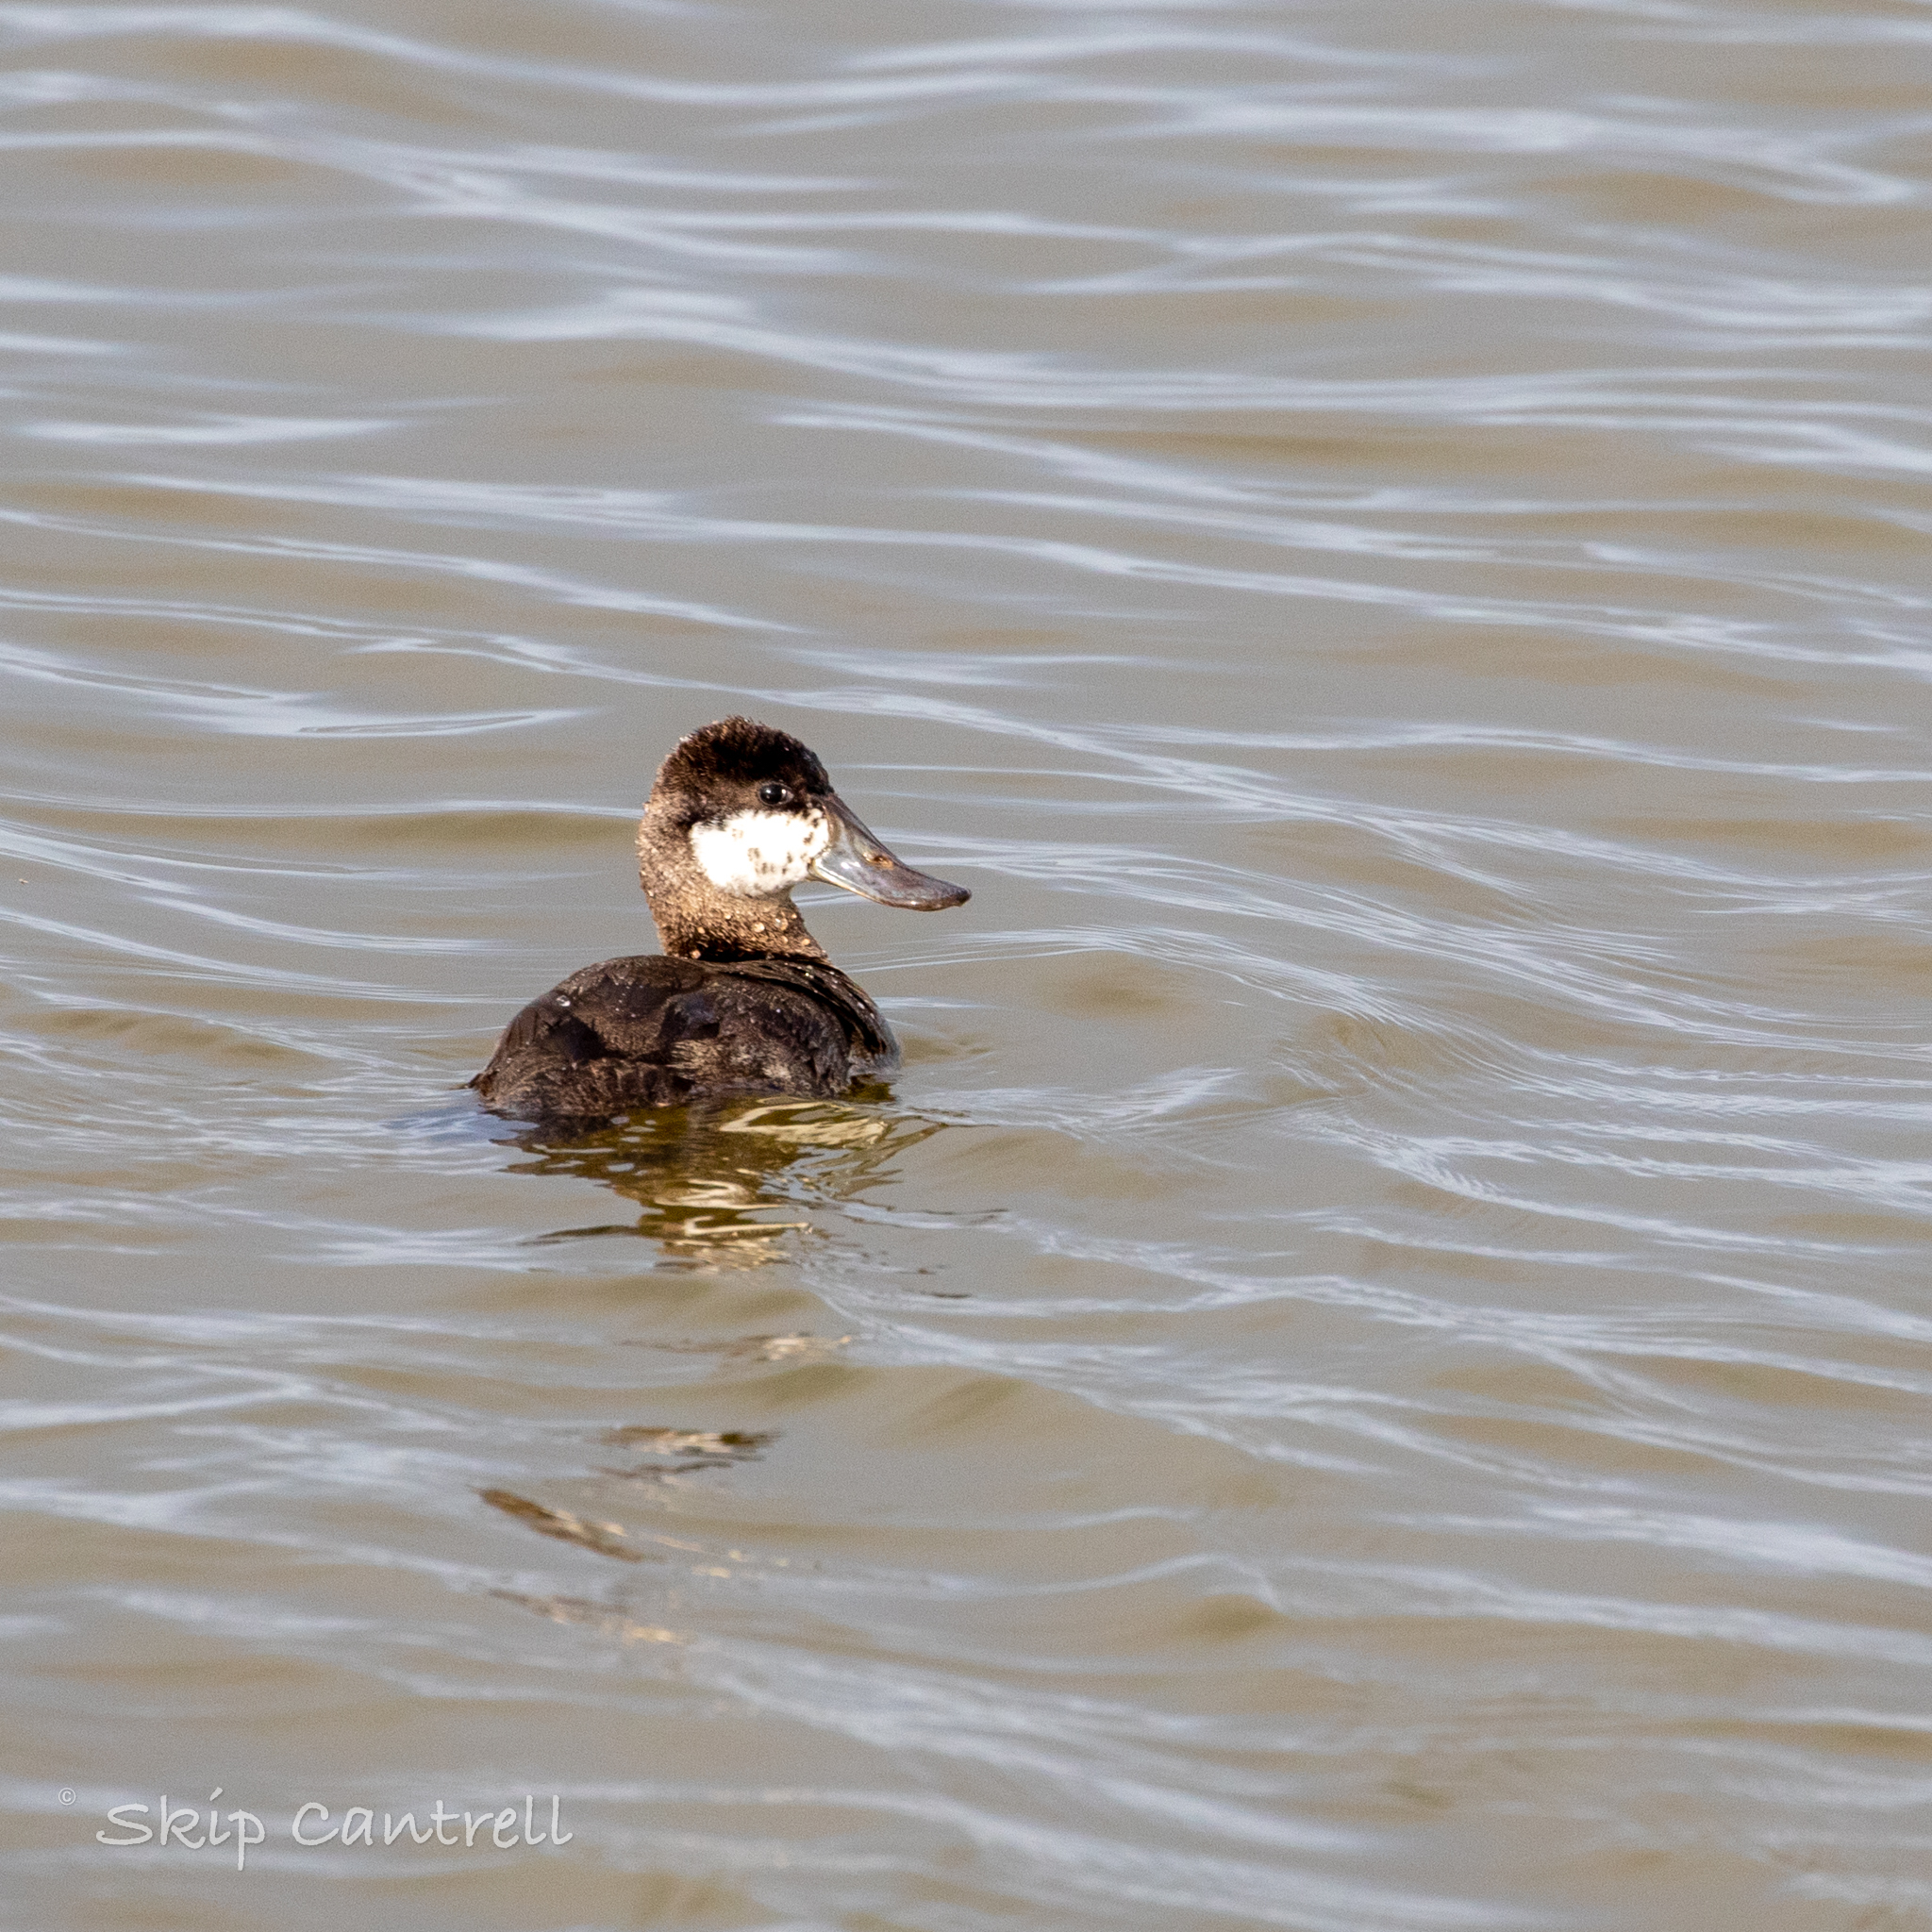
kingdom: Animalia
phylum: Chordata
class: Aves
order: Anseriformes
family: Anatidae
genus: Oxyura
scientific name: Oxyura jamaicensis
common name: Ruddy duck
